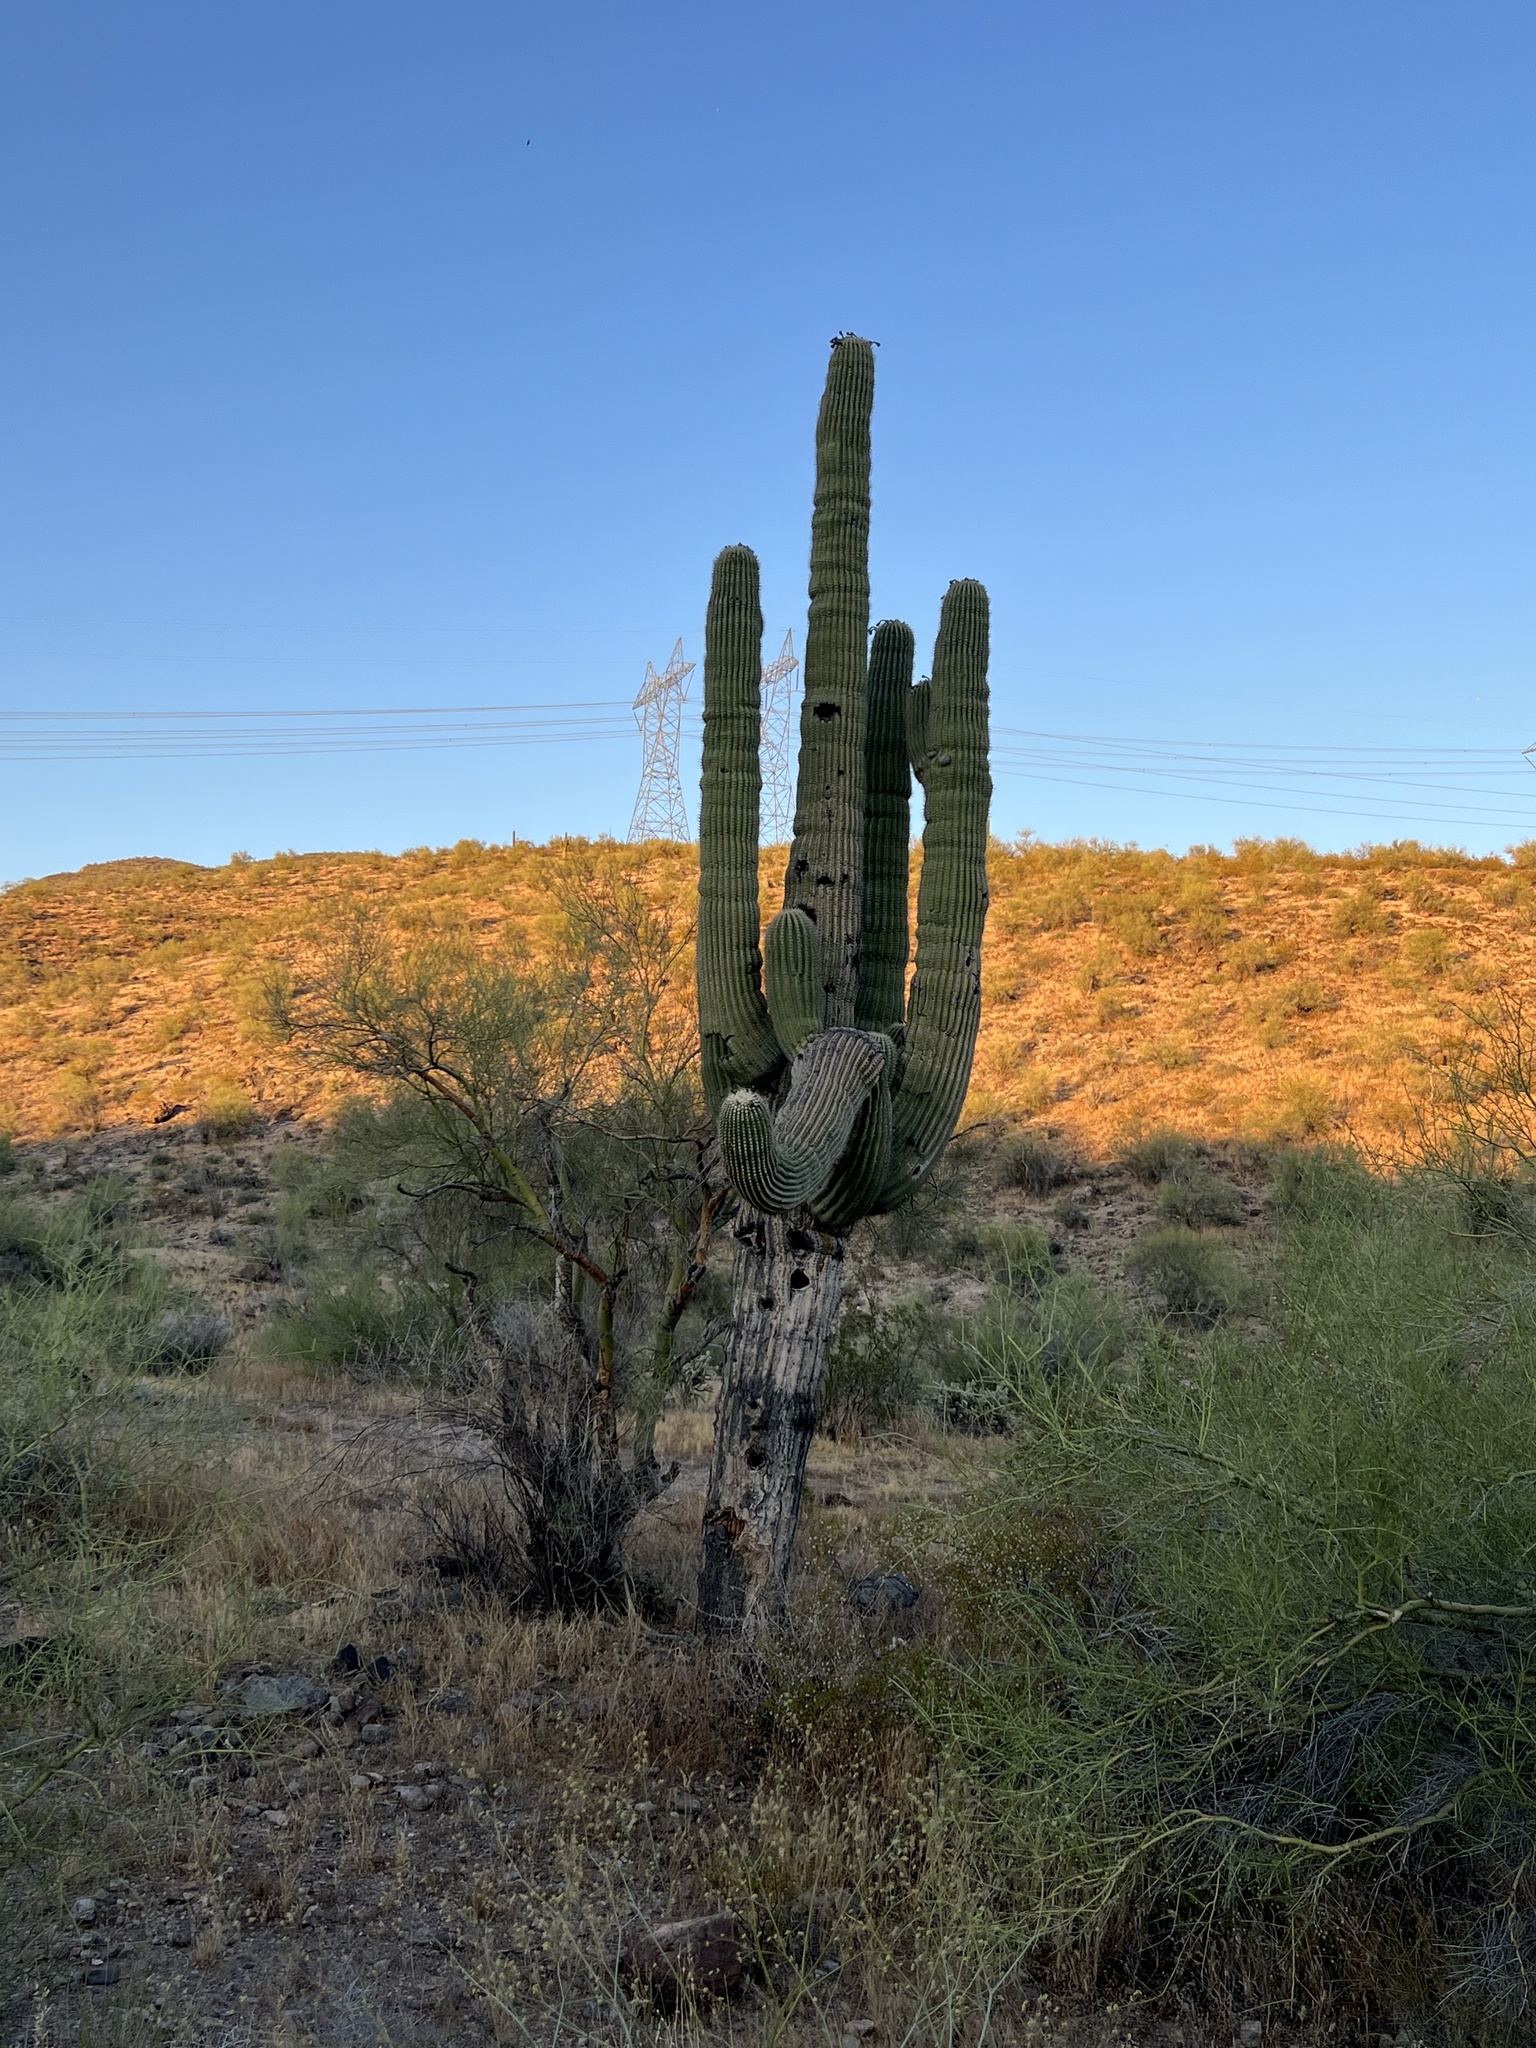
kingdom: Plantae
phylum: Tracheophyta
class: Magnoliopsida
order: Caryophyllales
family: Cactaceae
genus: Carnegiea
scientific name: Carnegiea gigantea
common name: Saguaro
